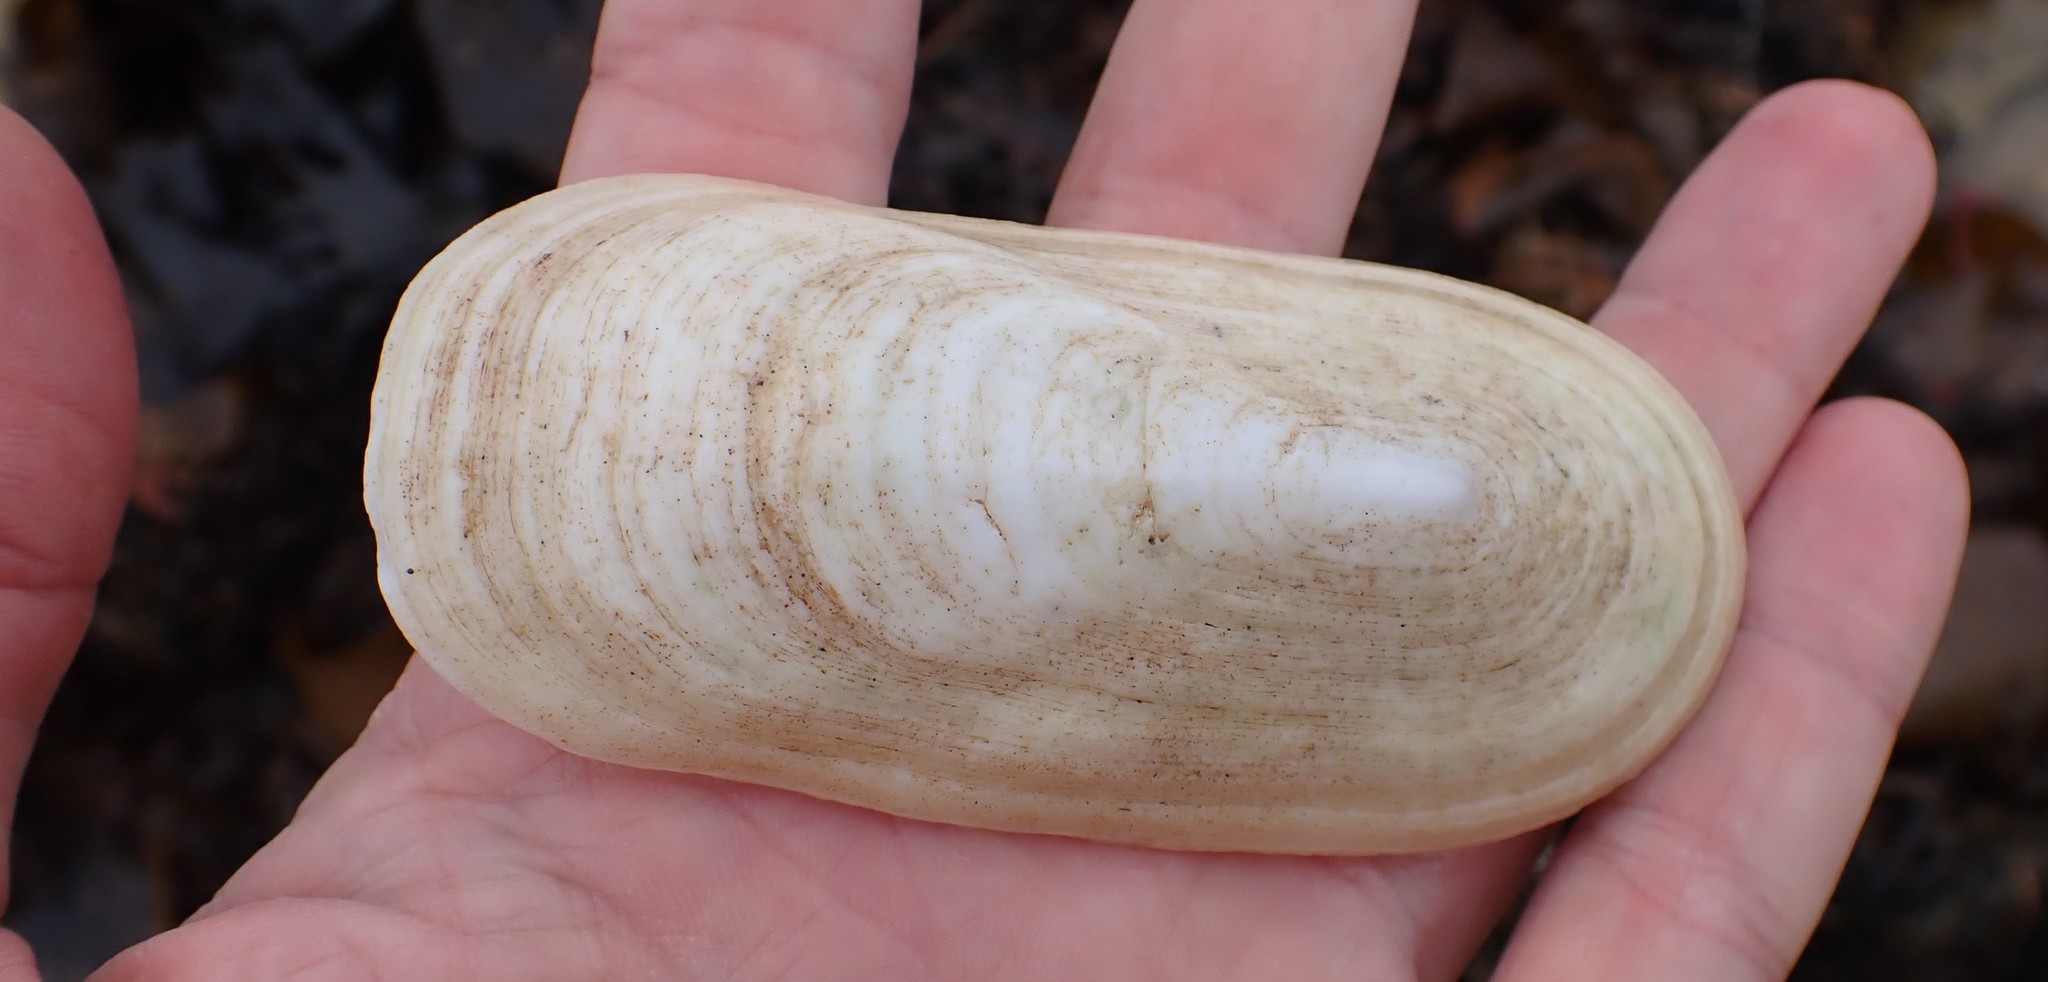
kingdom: Animalia
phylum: Mollusca
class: Gastropoda
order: Lepetellida
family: Fissurellidae
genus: Scutus
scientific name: Scutus antipodes
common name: Duckbill shell
